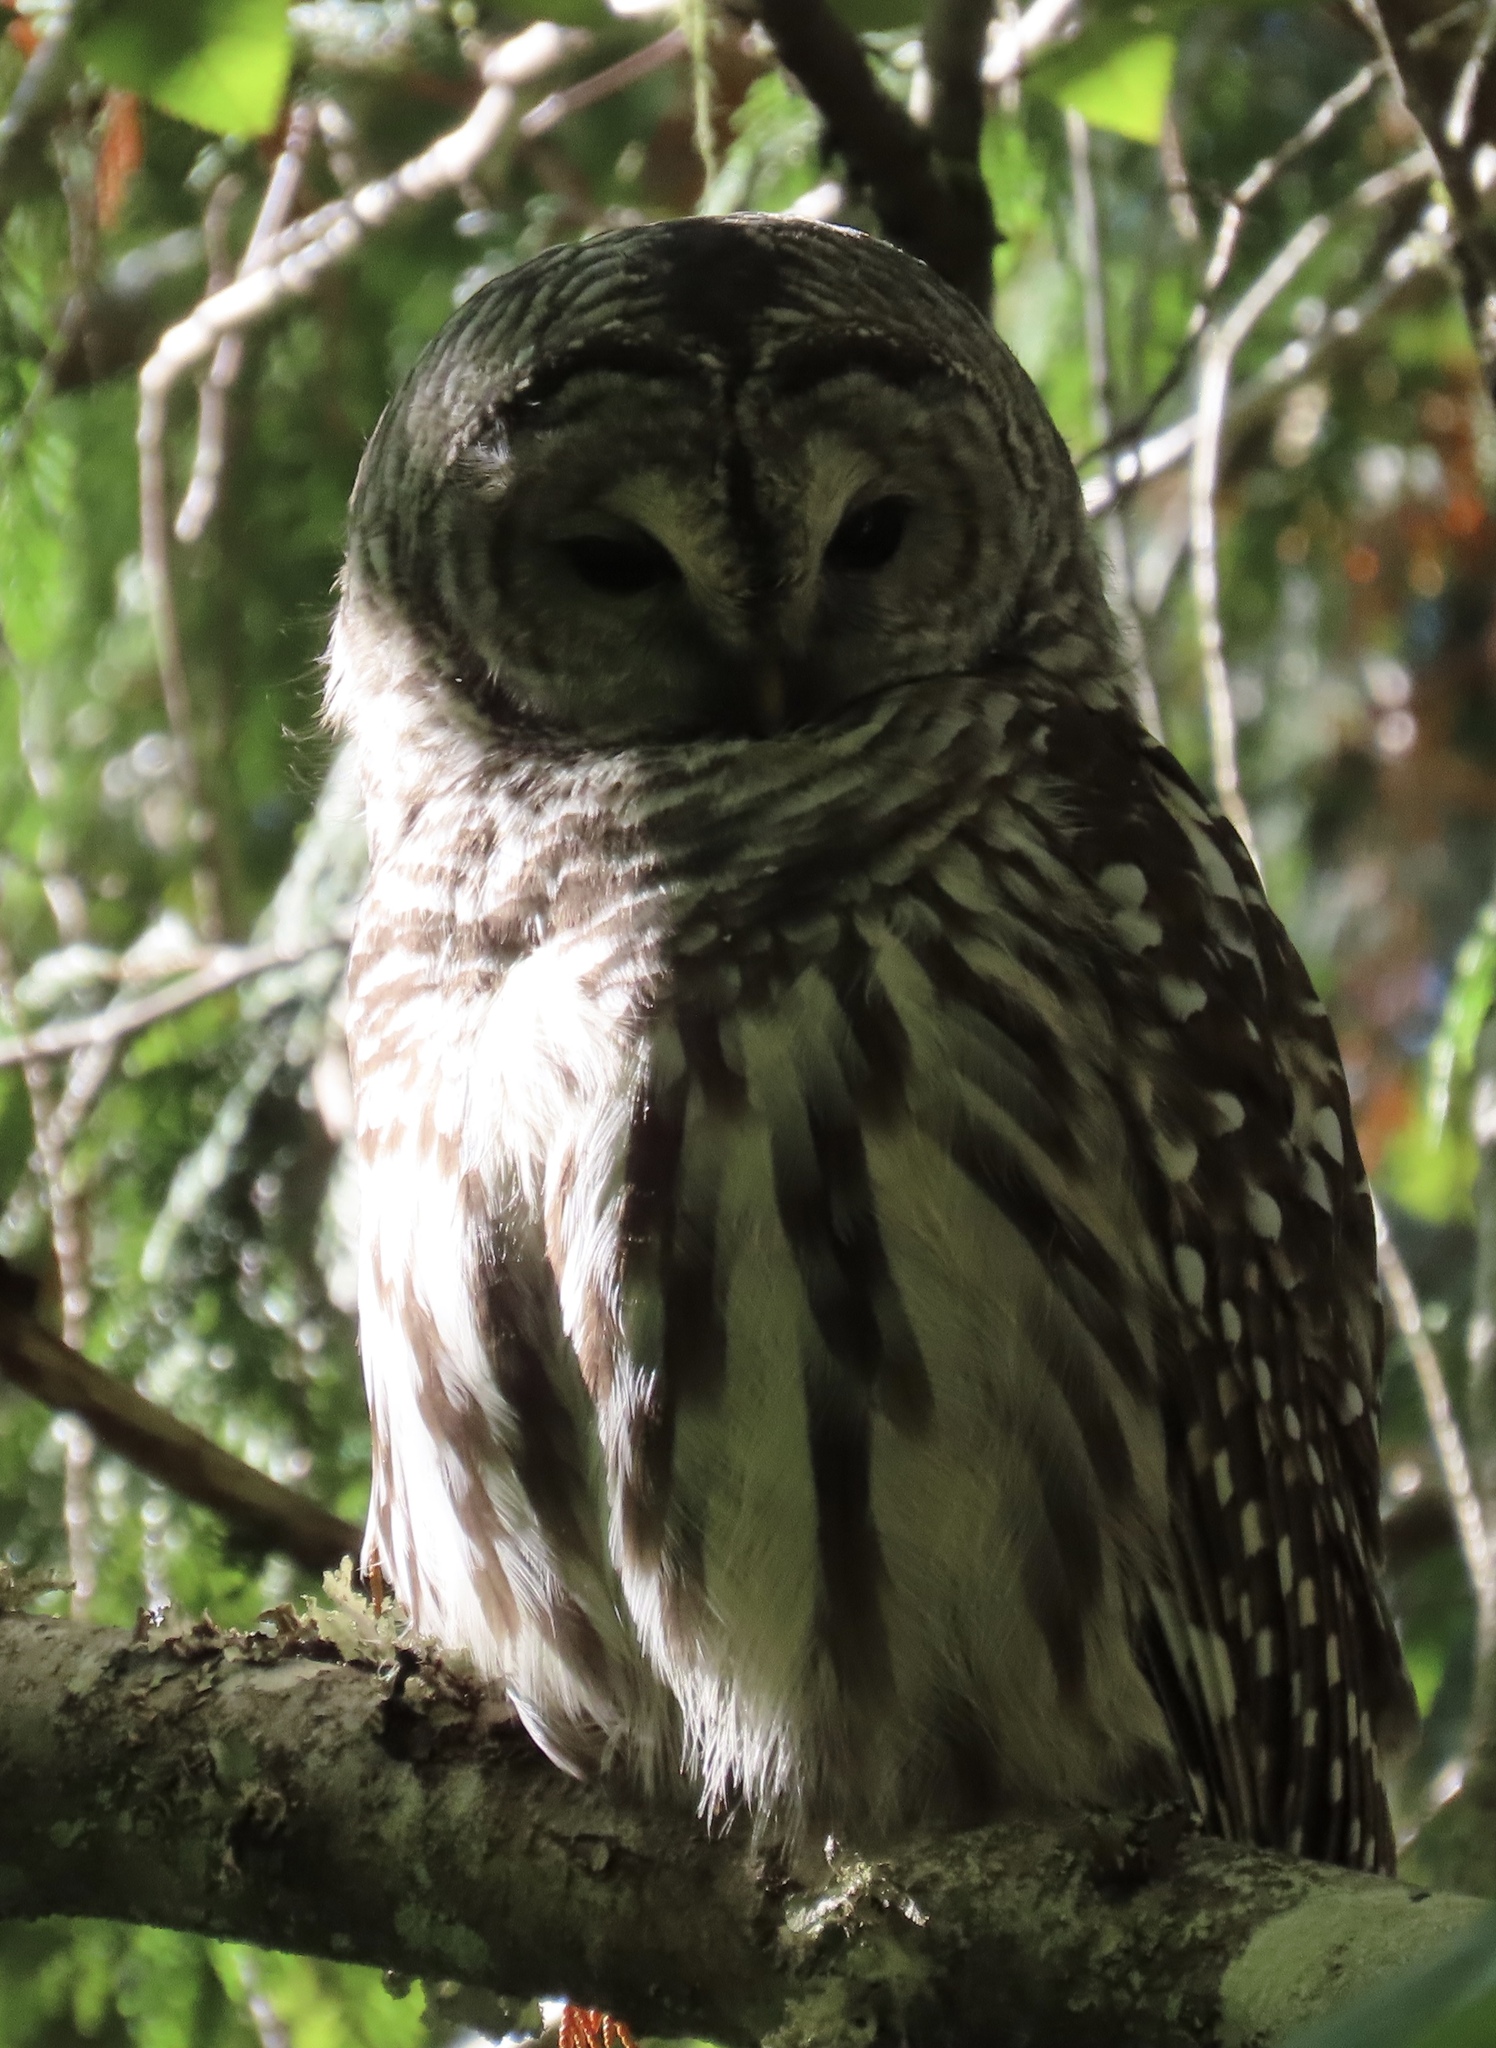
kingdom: Animalia
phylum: Chordata
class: Aves
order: Strigiformes
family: Strigidae
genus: Strix
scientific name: Strix varia
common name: Barred owl
